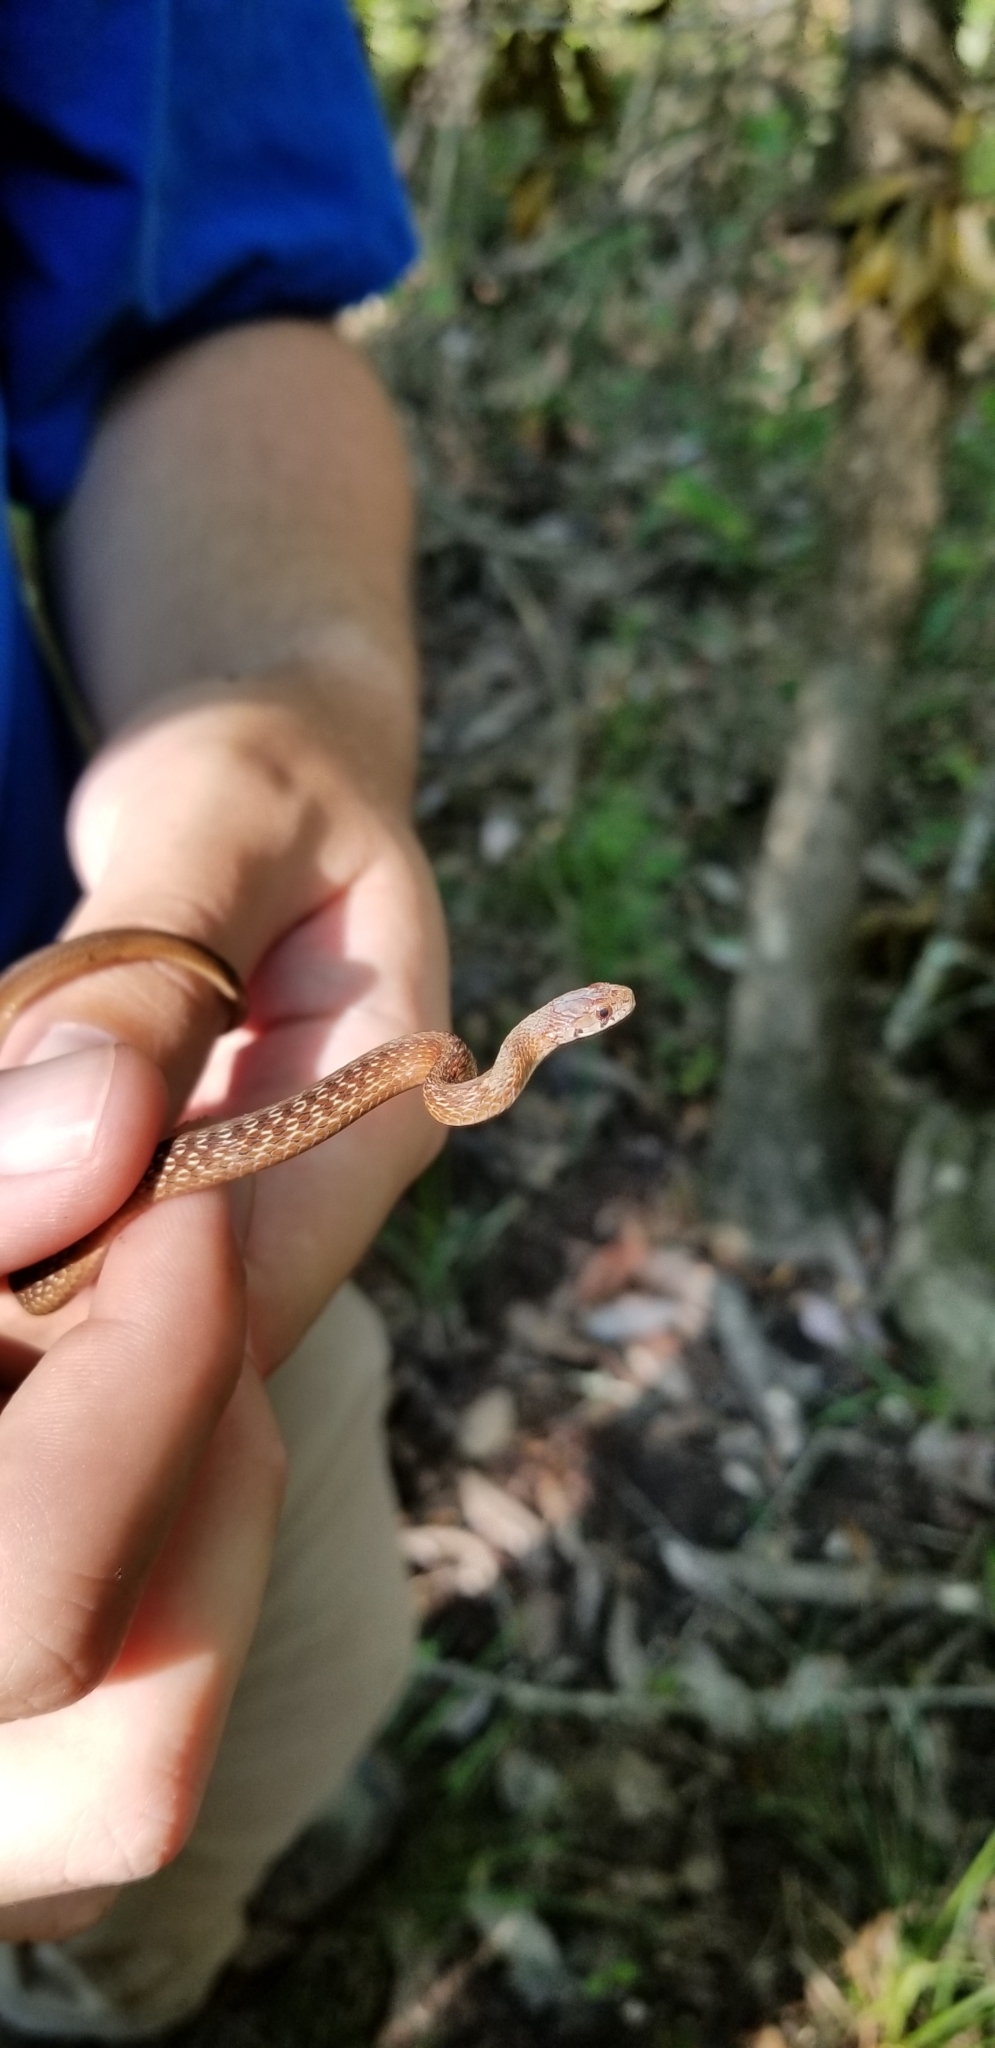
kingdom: Animalia
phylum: Chordata
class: Squamata
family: Colubridae
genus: Storeria
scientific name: Storeria dekayi
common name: (dekay’s) brown snake
